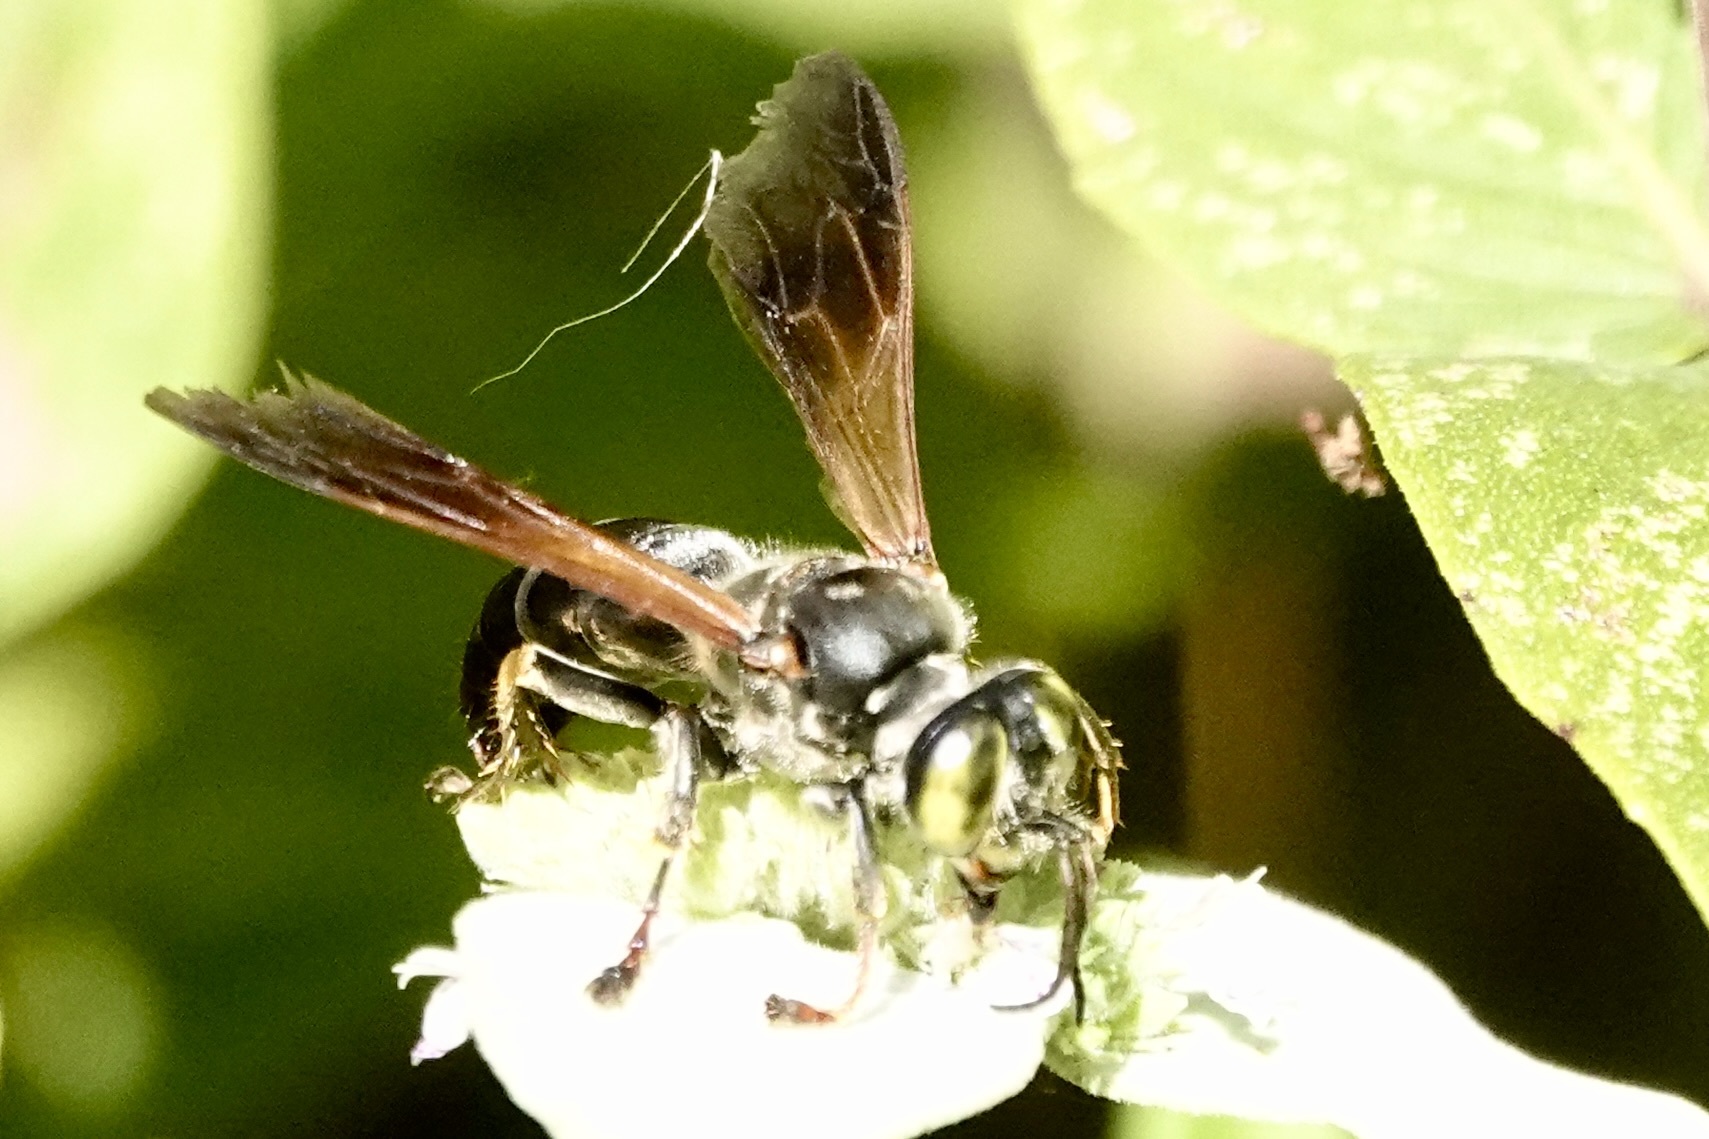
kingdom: Animalia
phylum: Arthropoda
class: Insecta
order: Hymenoptera
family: Crabronidae
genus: Tachytes
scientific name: Tachytes guatemalensis
